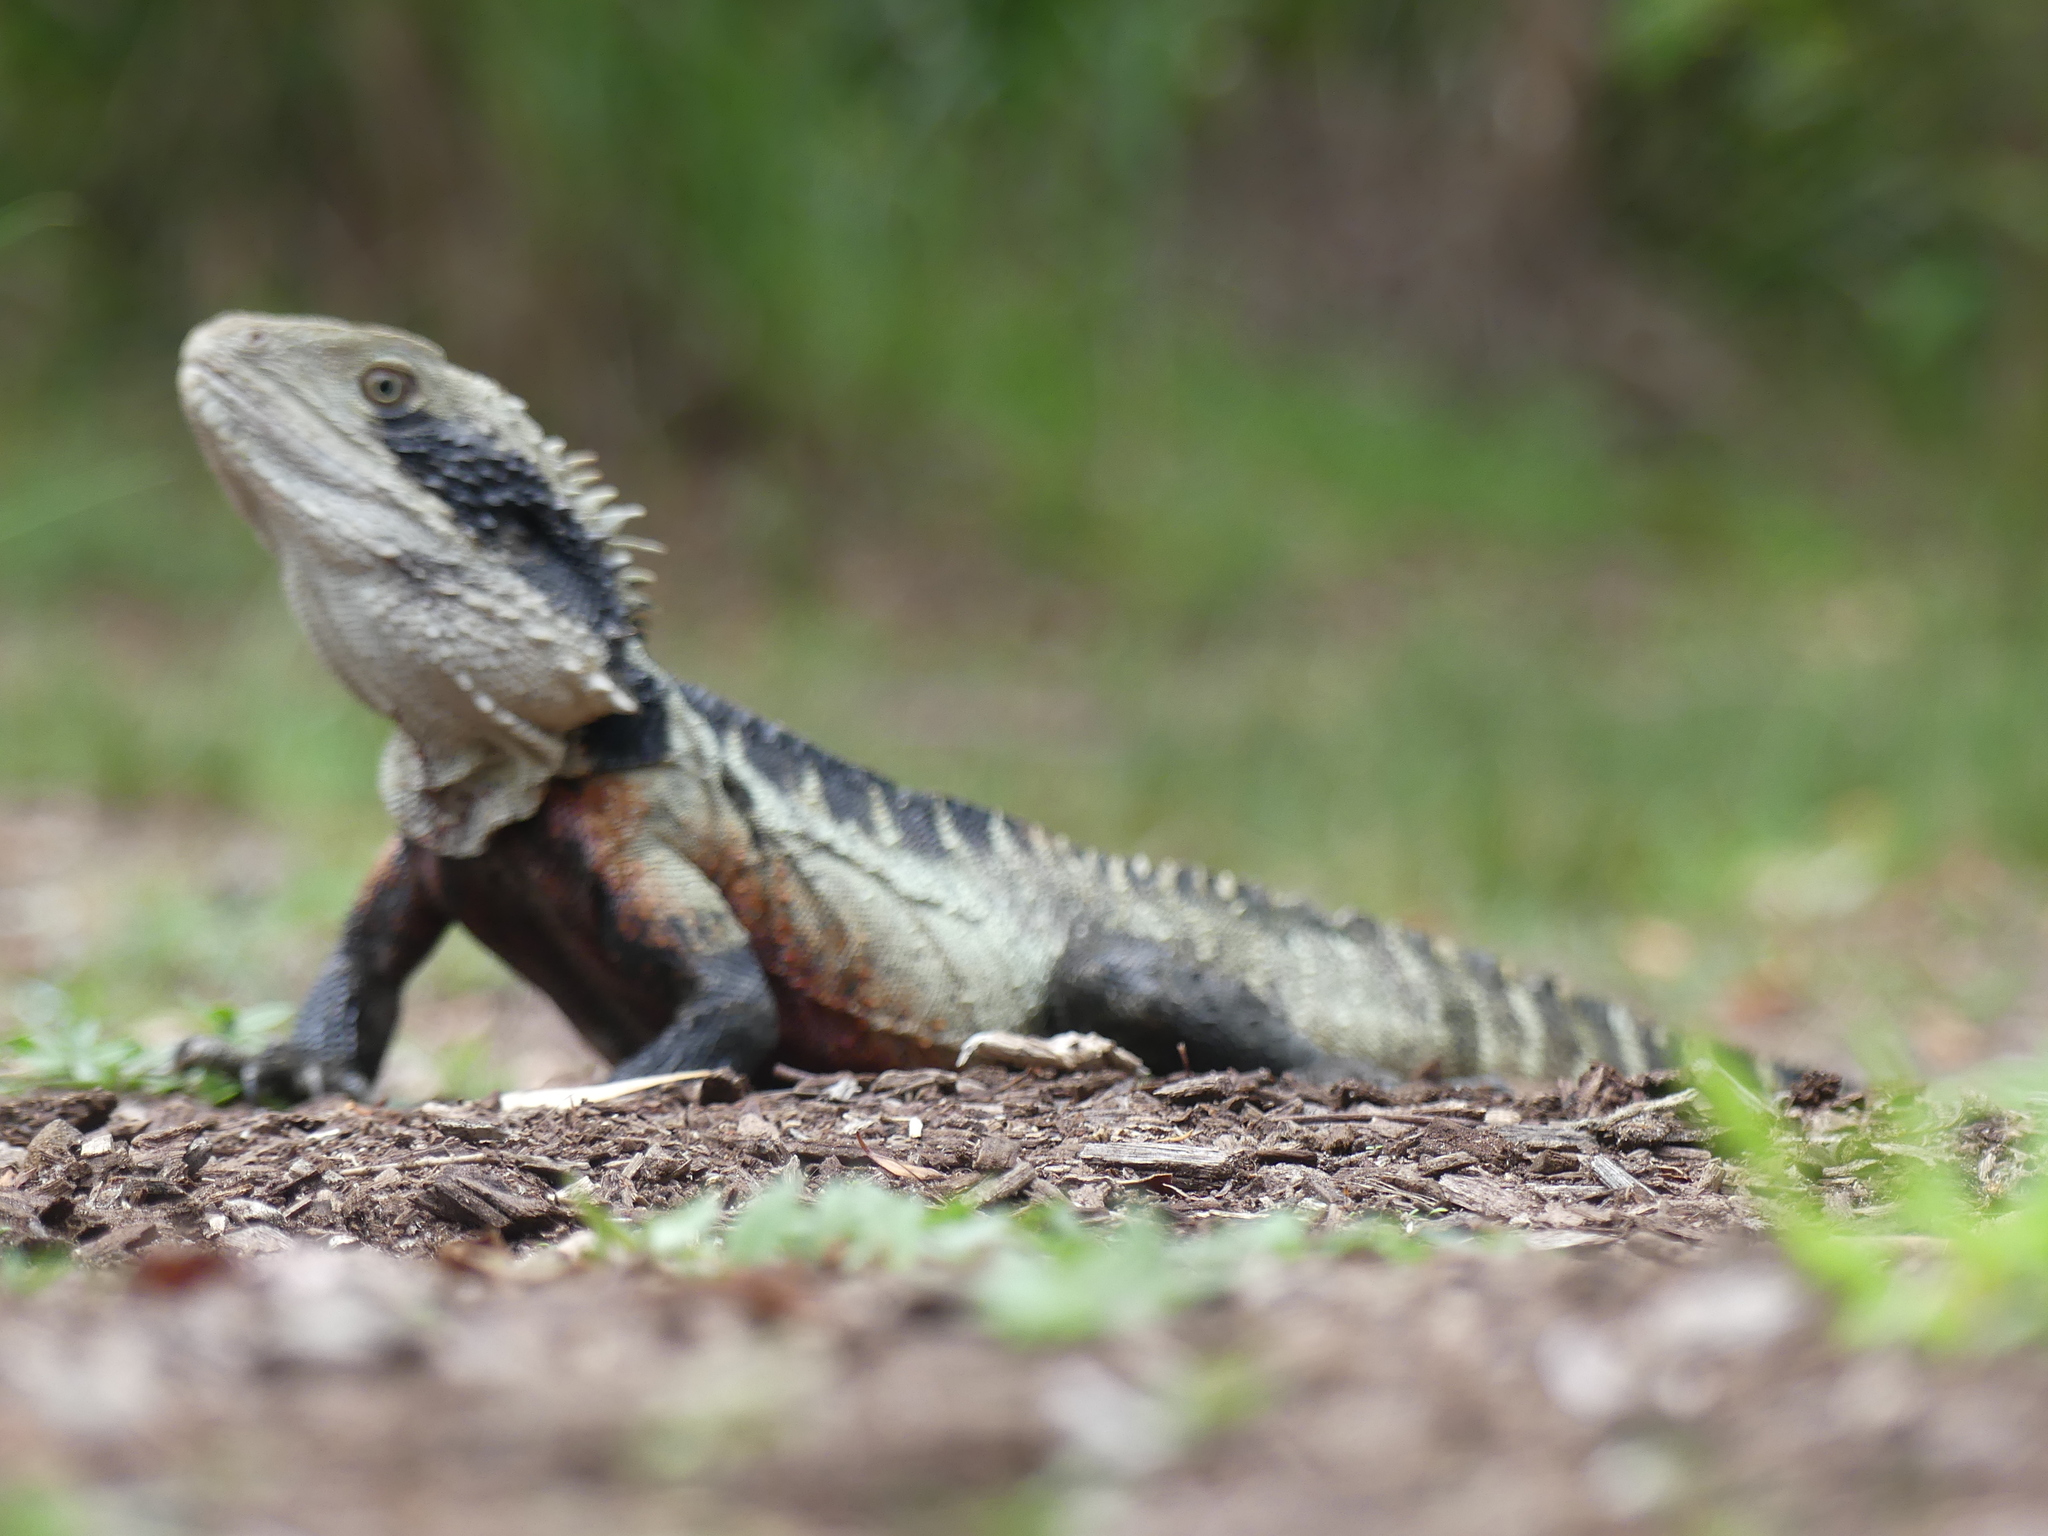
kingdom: Animalia
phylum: Chordata
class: Squamata
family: Agamidae
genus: Intellagama
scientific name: Intellagama lesueurii
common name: Eastern water dragon
